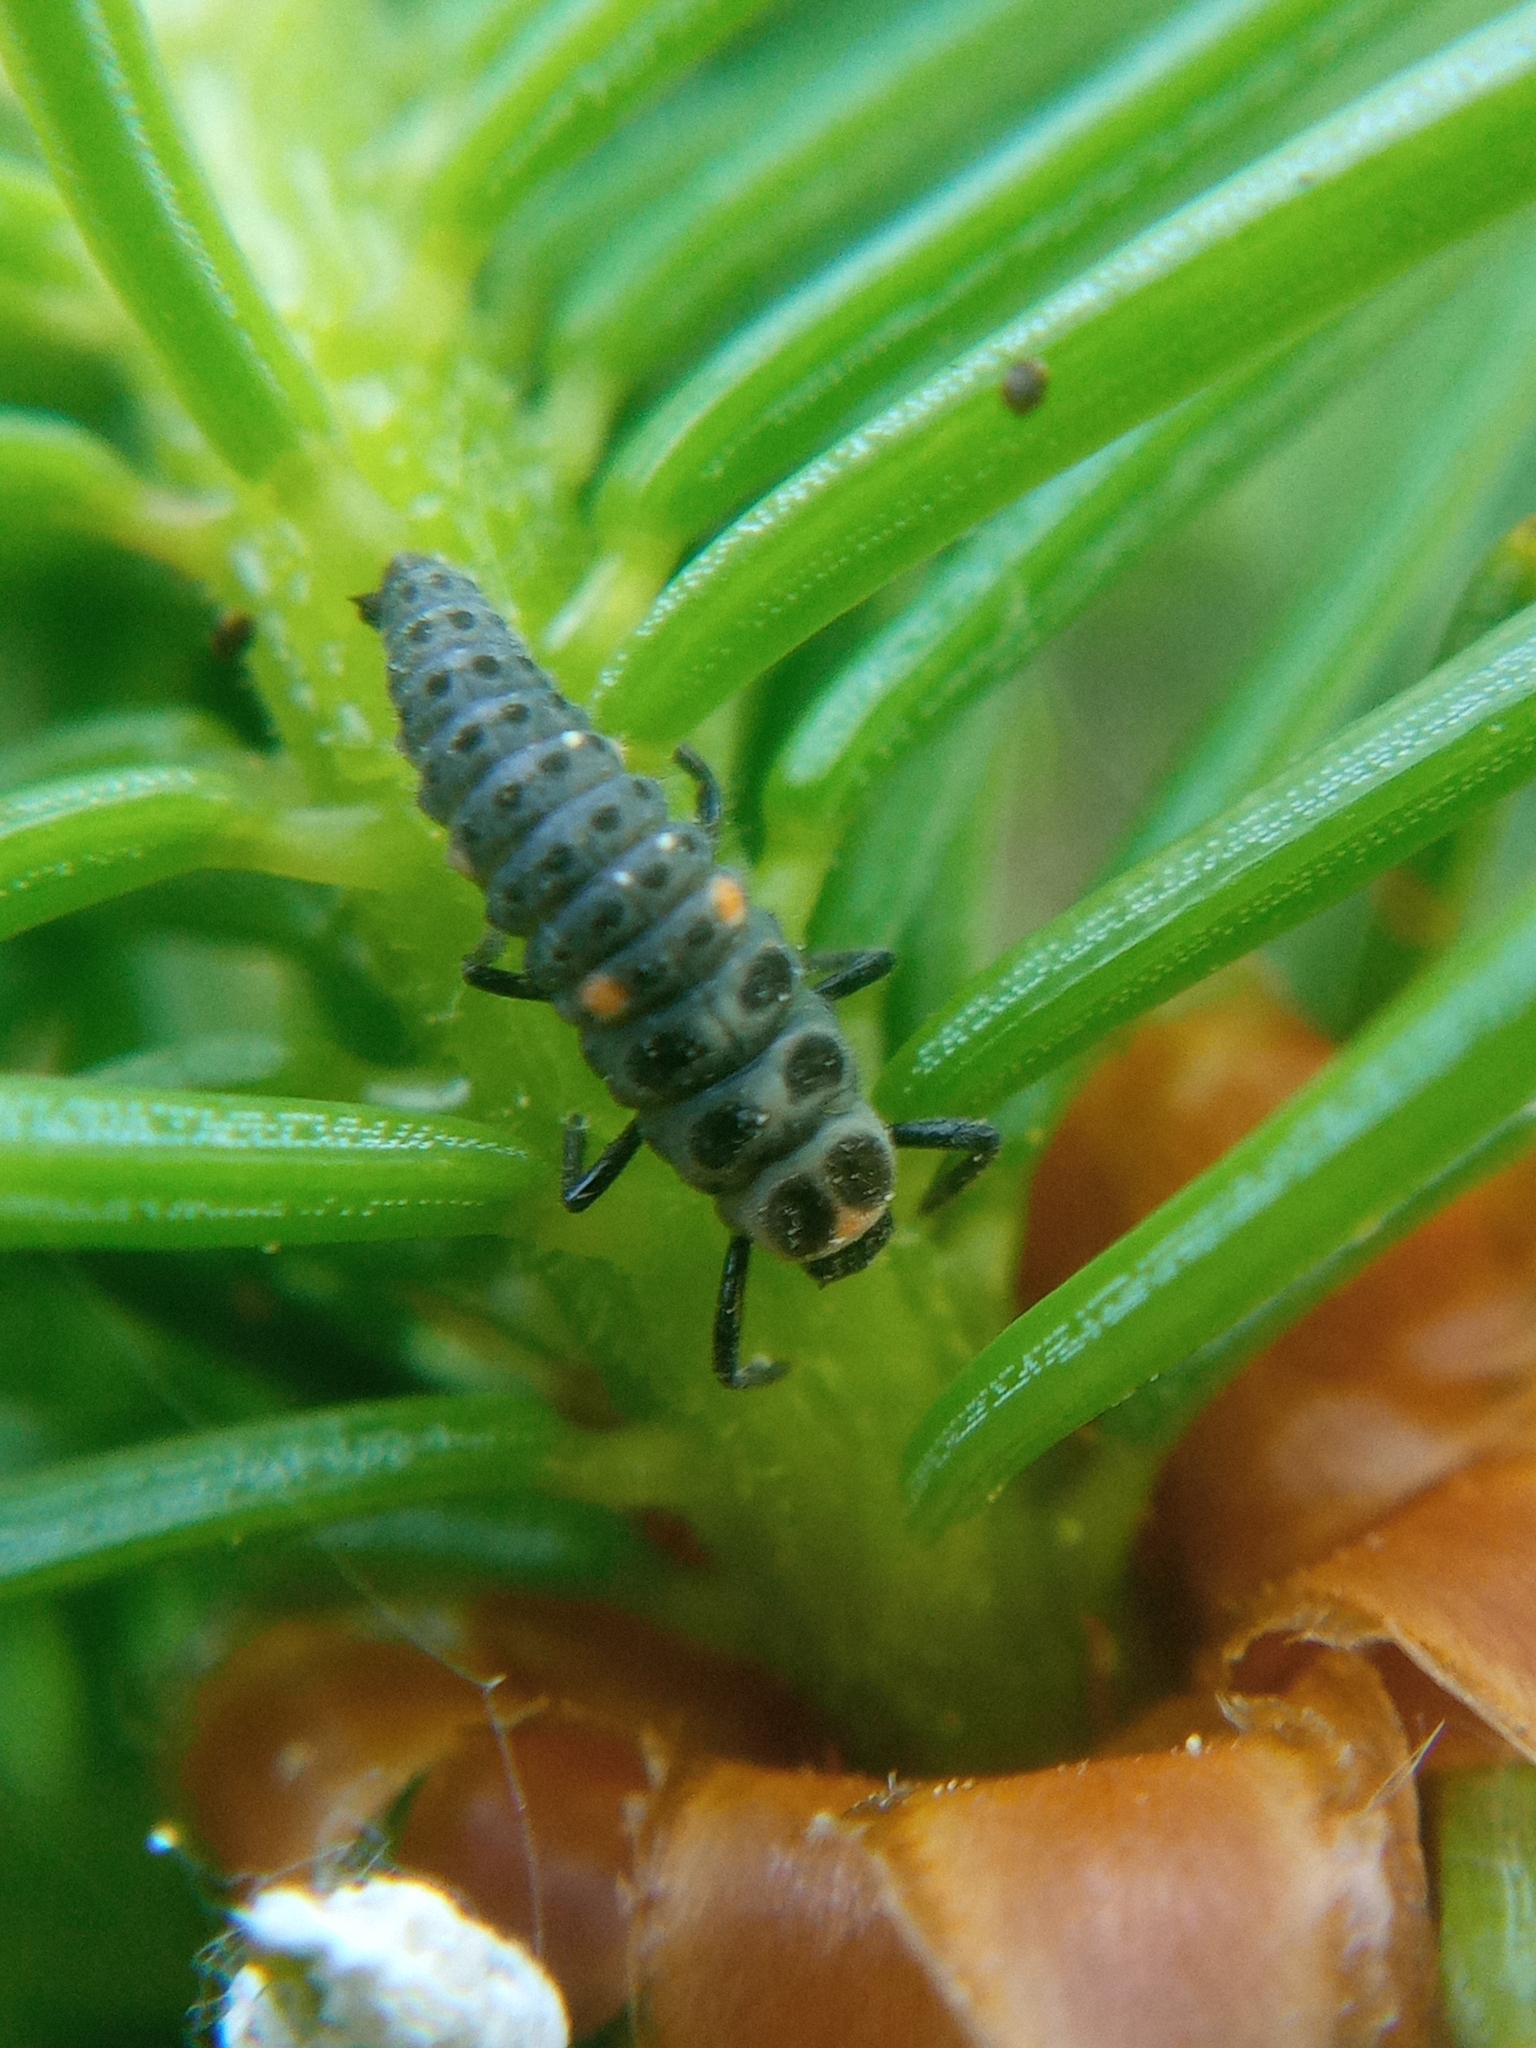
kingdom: Animalia
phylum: Arthropoda
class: Insecta
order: Coleoptera
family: Coccinellidae
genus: Myzia
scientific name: Myzia oblongoguttata
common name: Striped ladybird
